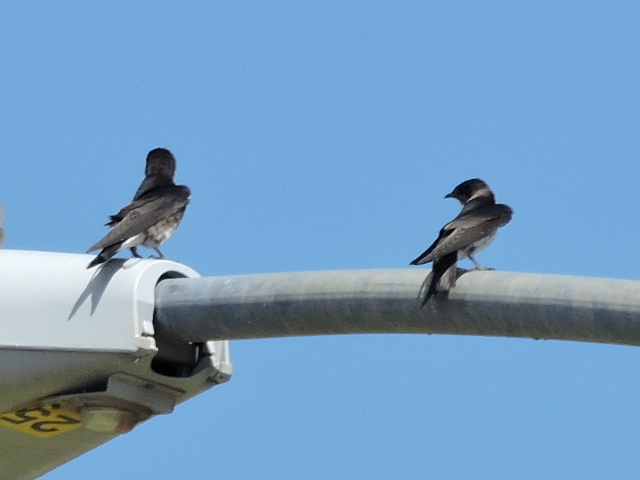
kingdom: Animalia
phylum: Chordata
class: Aves
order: Passeriformes
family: Hirundinidae
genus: Progne
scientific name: Progne subis
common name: Purple martin
